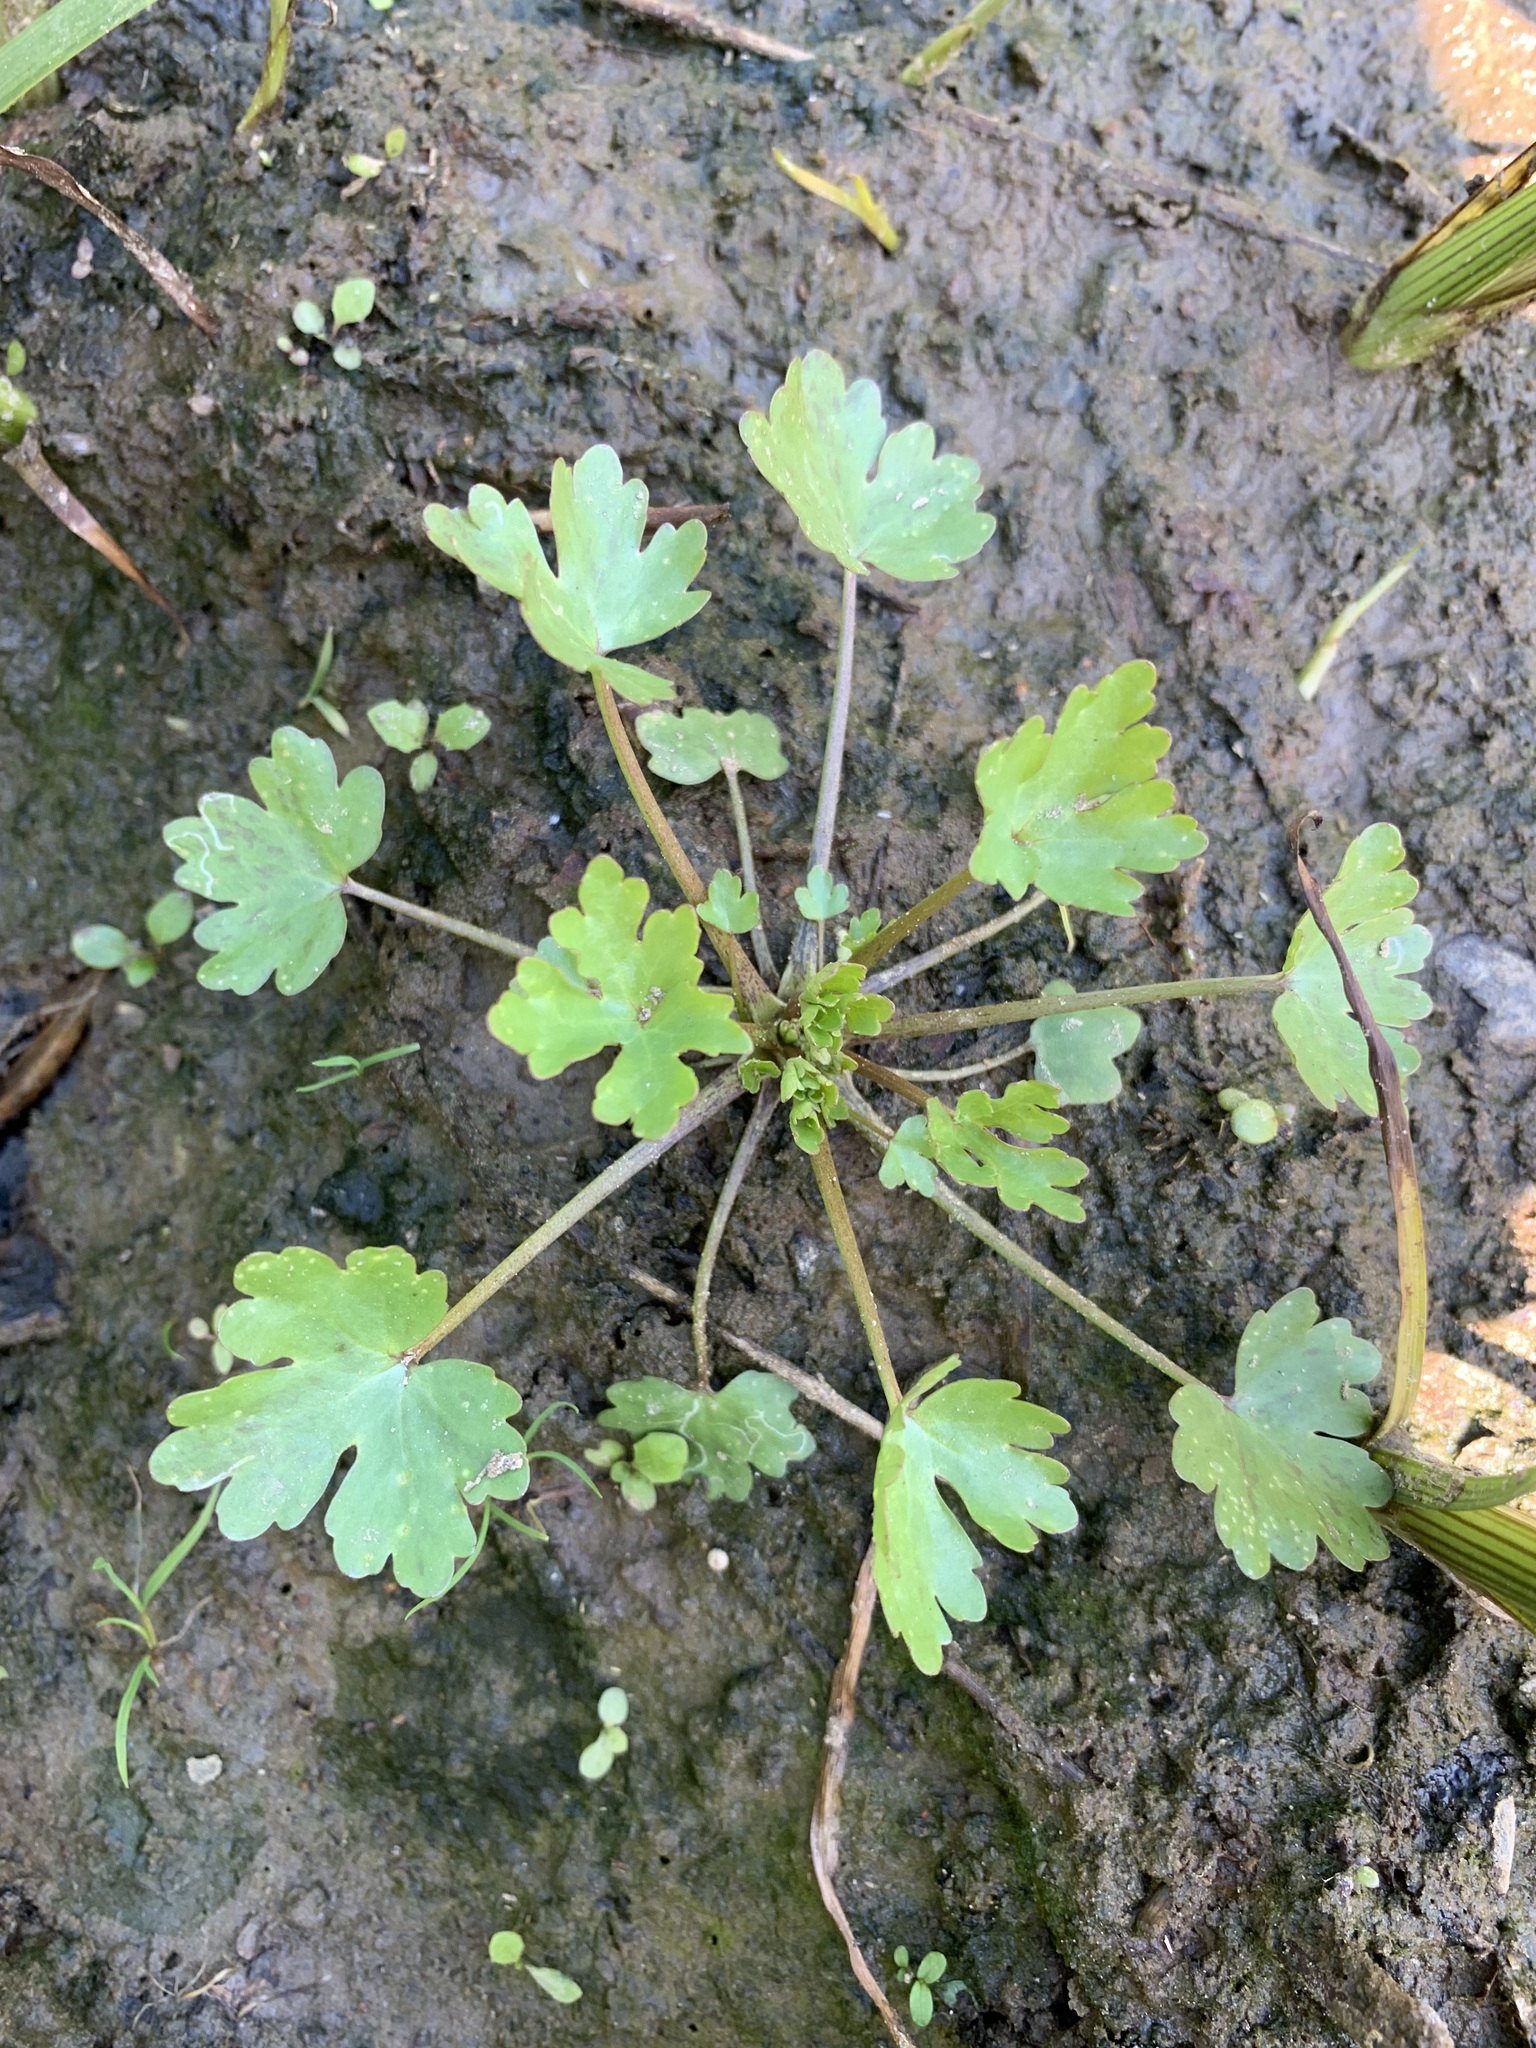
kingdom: Plantae
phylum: Tracheophyta
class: Magnoliopsida
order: Ranunculales
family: Ranunculaceae
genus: Ranunculus
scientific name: Ranunculus sceleratus
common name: Celery-leaved buttercup
